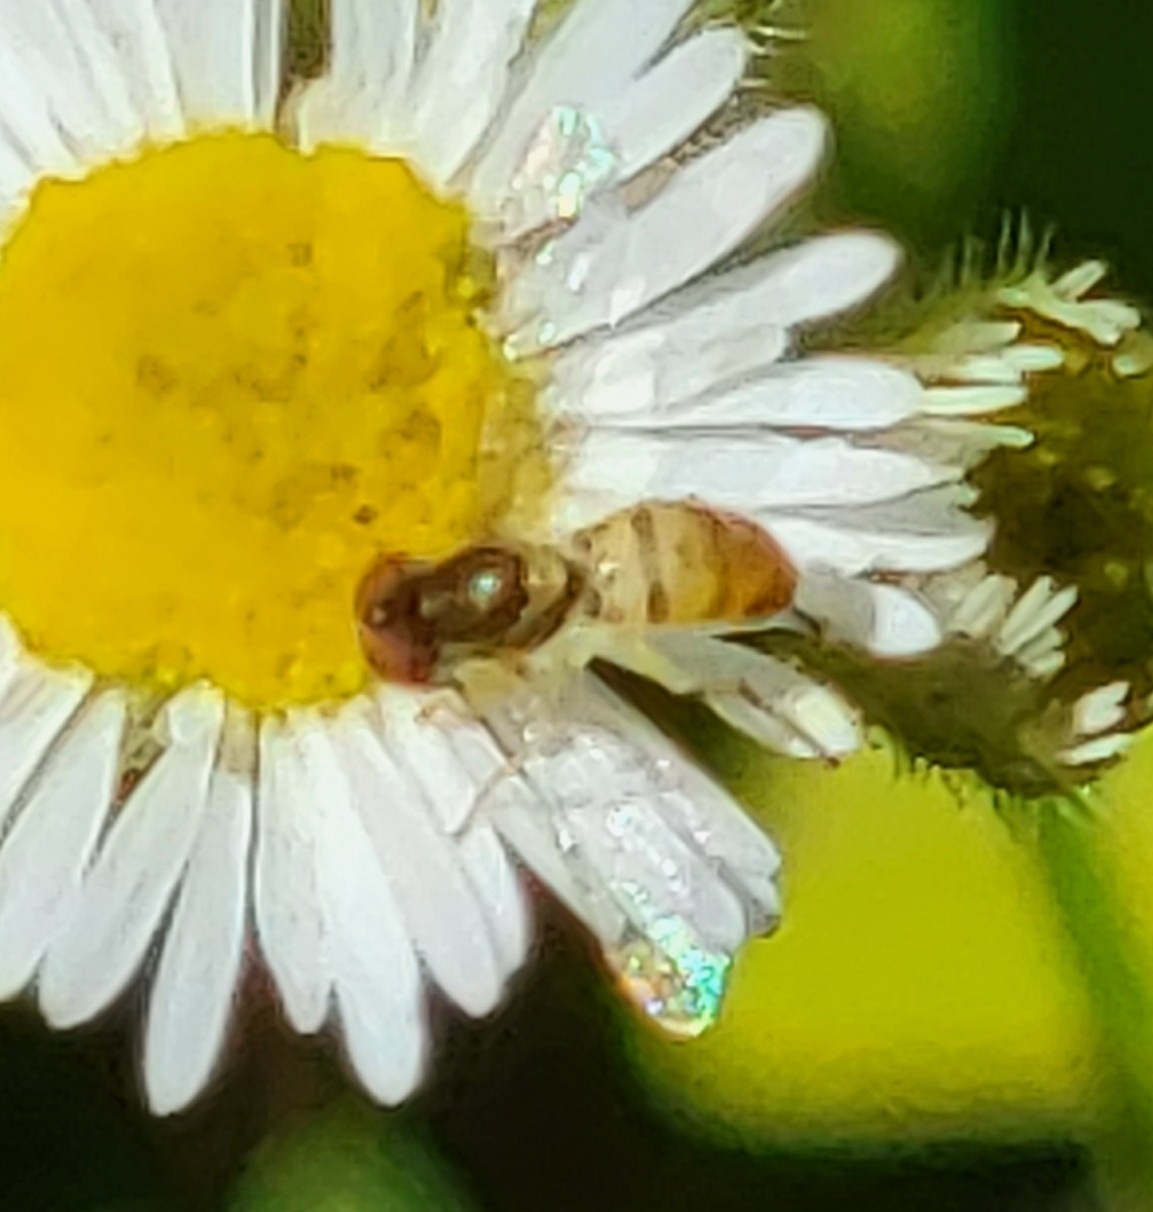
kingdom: Animalia
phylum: Arthropoda
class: Insecta
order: Diptera
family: Syrphidae
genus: Toxomerus
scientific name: Toxomerus marginatus
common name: Syrphid fly
